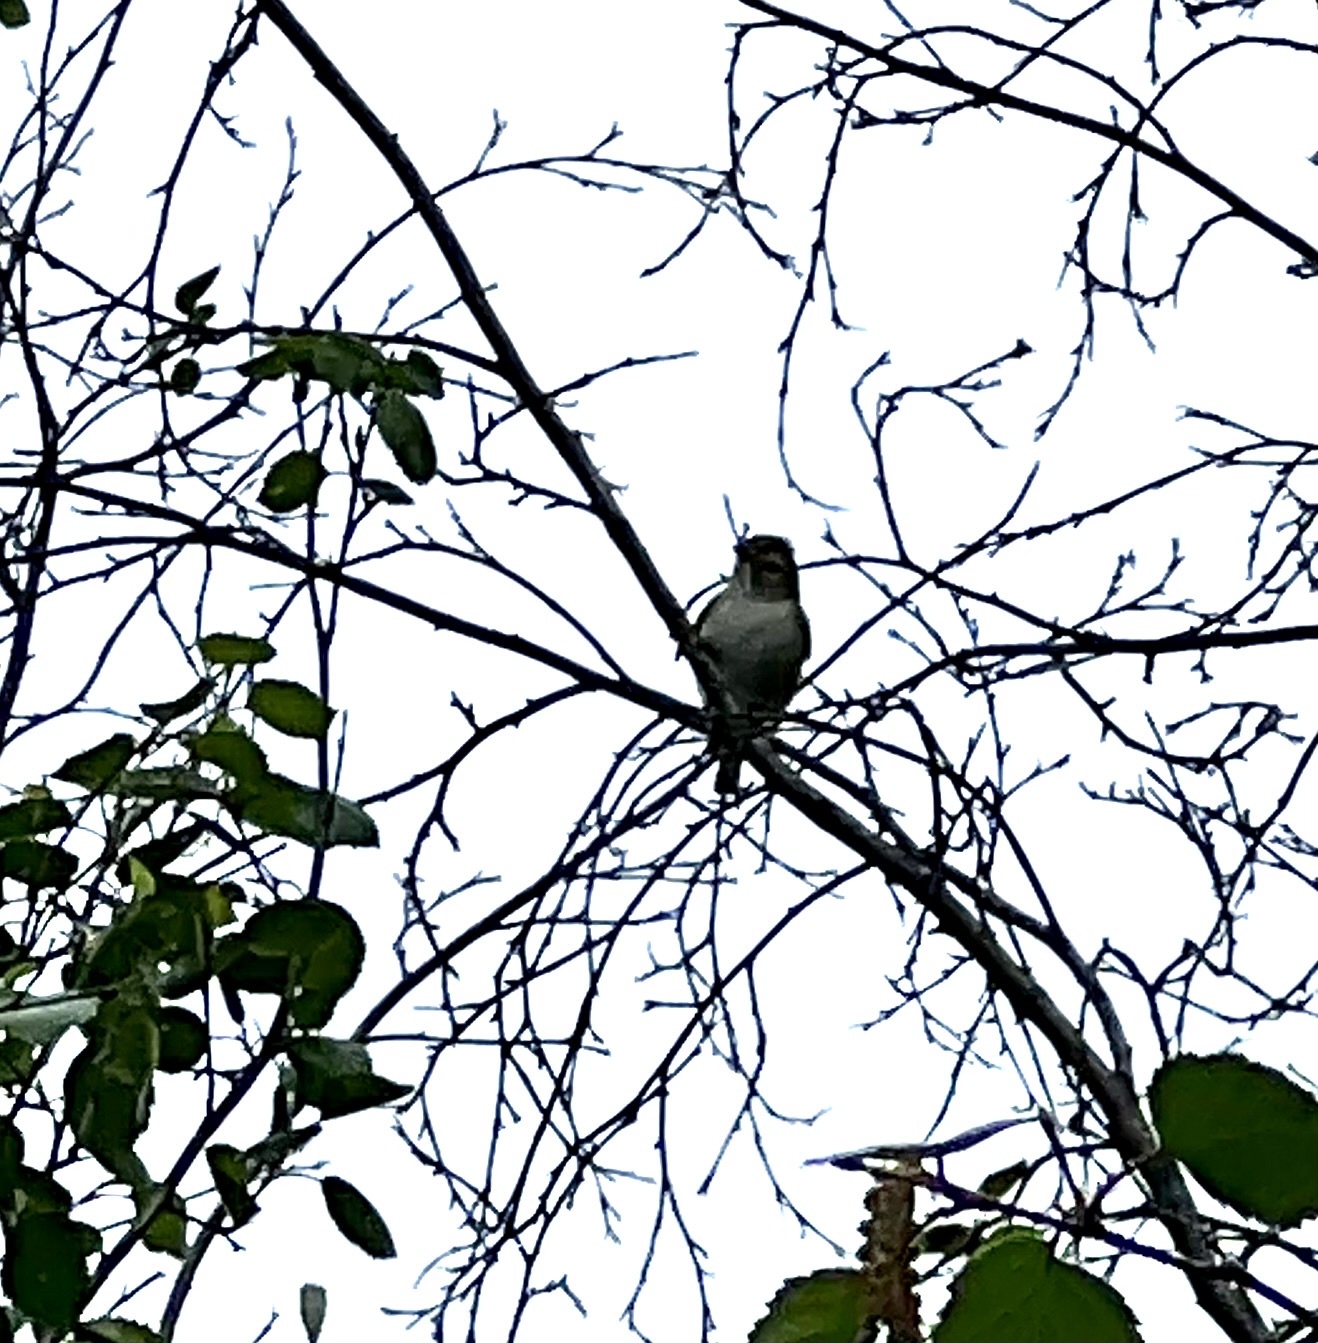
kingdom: Animalia
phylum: Chordata
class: Aves
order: Passeriformes
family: Vireonidae
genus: Vireo
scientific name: Vireo gilvus
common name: Warbling vireo
